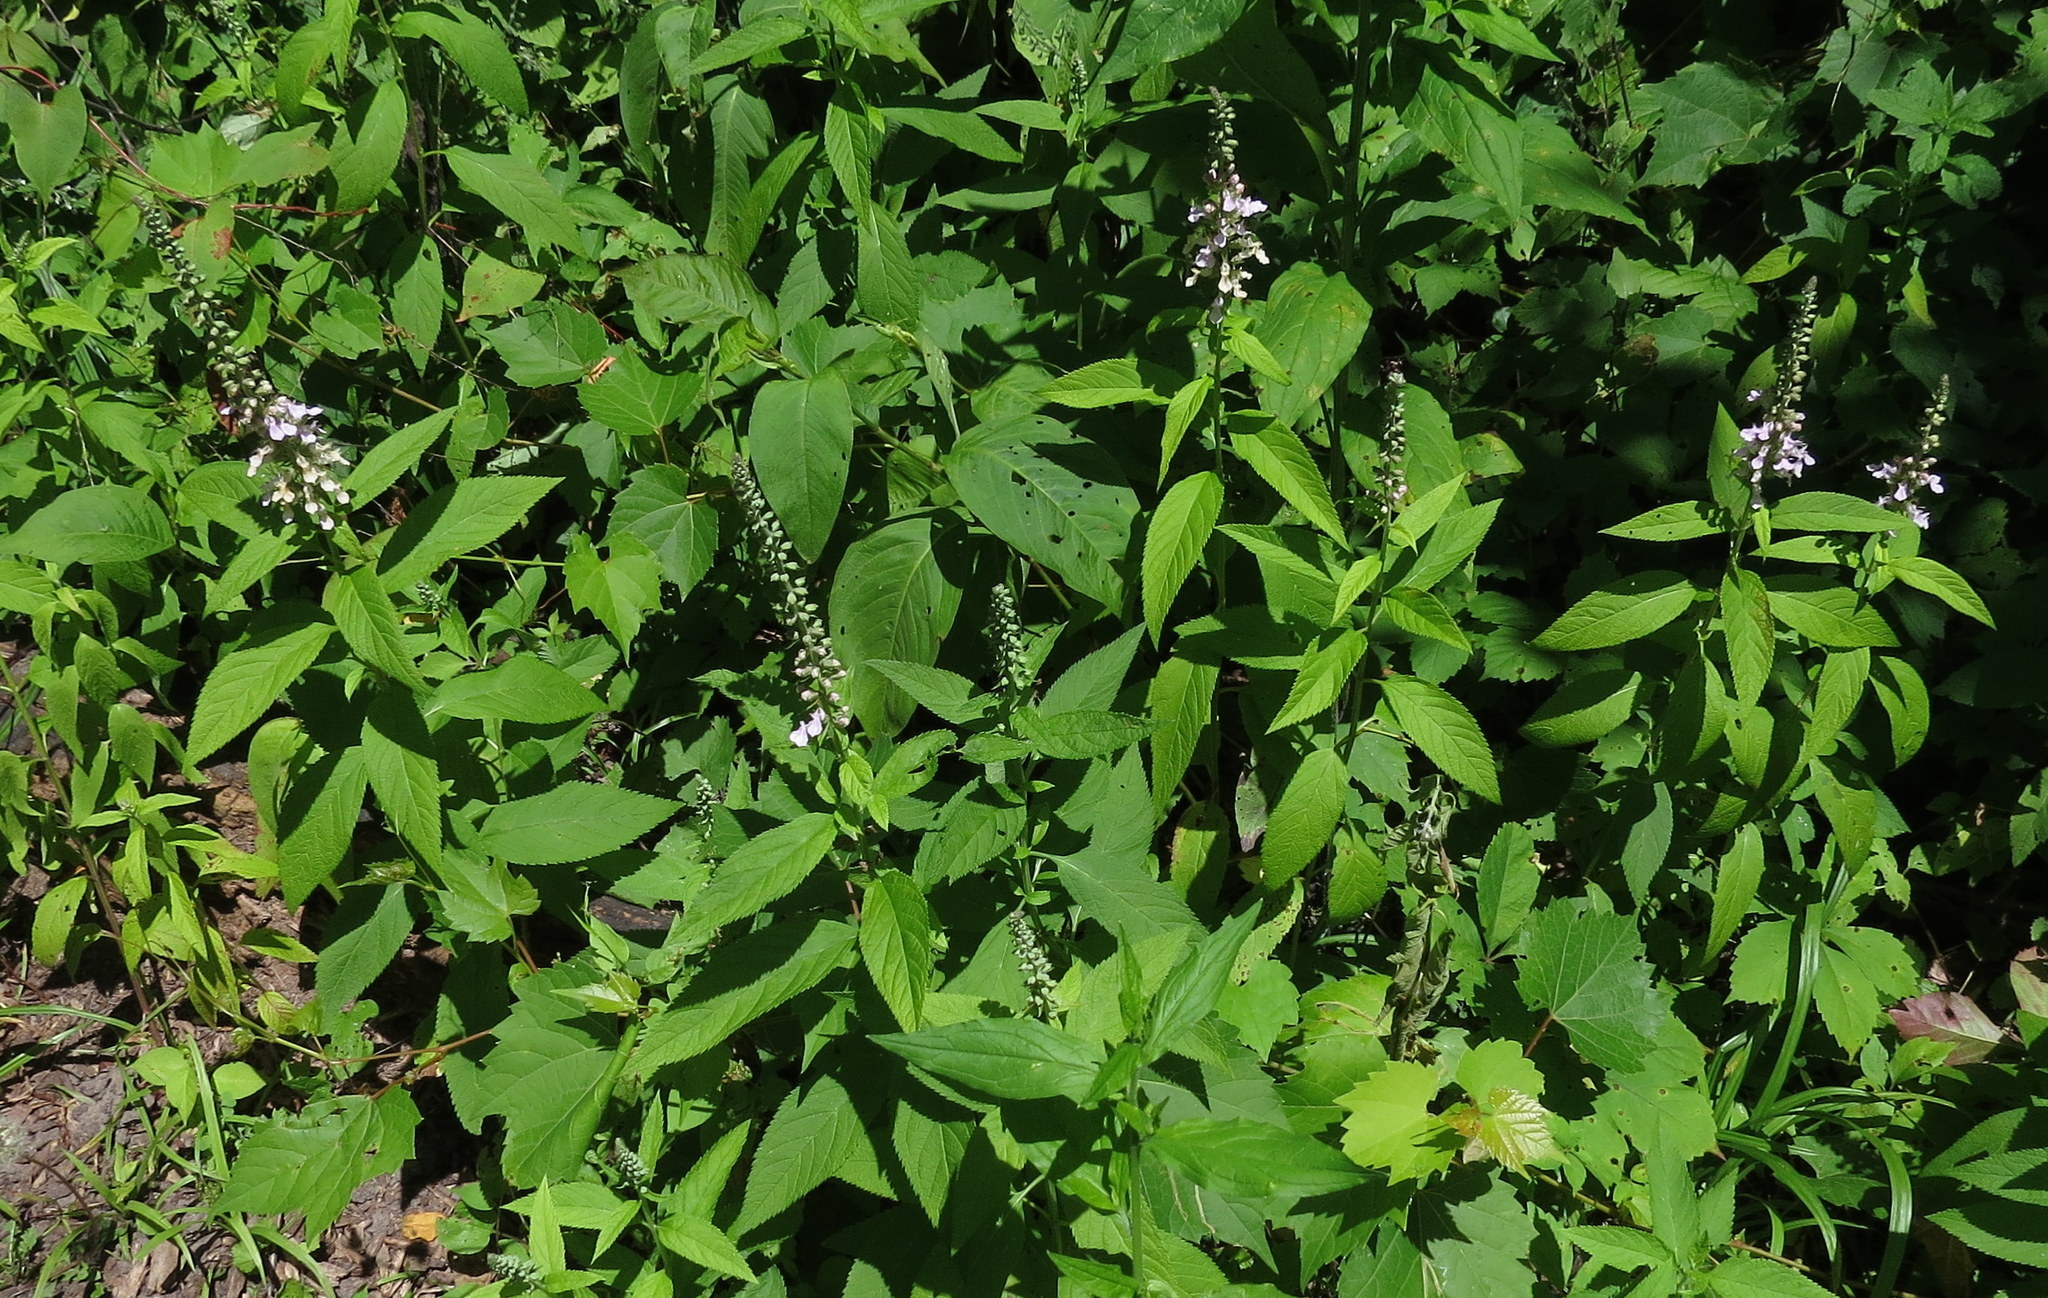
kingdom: Plantae
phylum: Tracheophyta
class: Magnoliopsida
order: Lamiales
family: Lamiaceae
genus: Teucrium
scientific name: Teucrium canadense
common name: American germander
